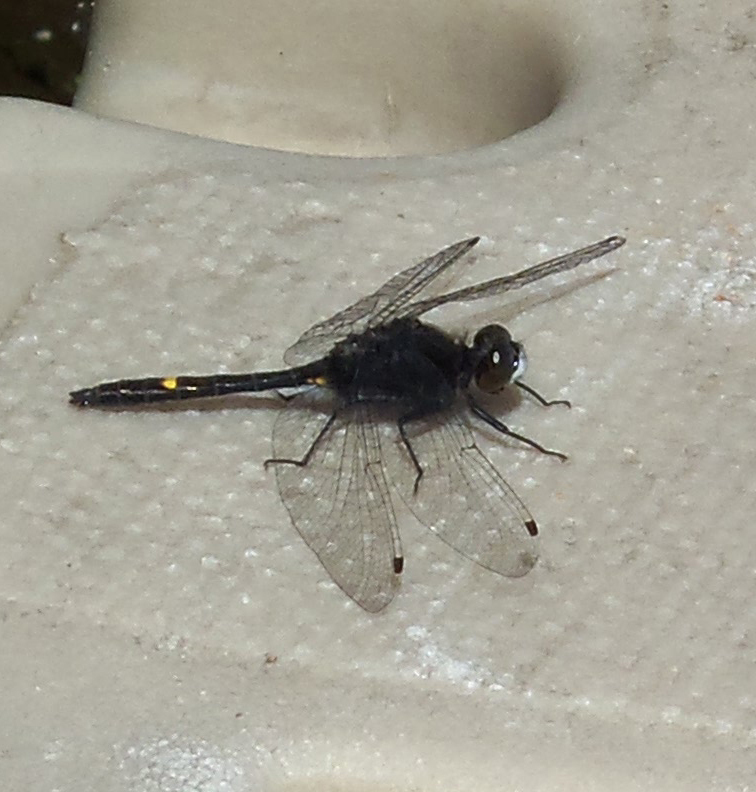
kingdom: Animalia
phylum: Arthropoda
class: Insecta
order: Odonata
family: Libellulidae
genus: Leucorrhinia
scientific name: Leucorrhinia intacta
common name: Dot-tailed whiteface
